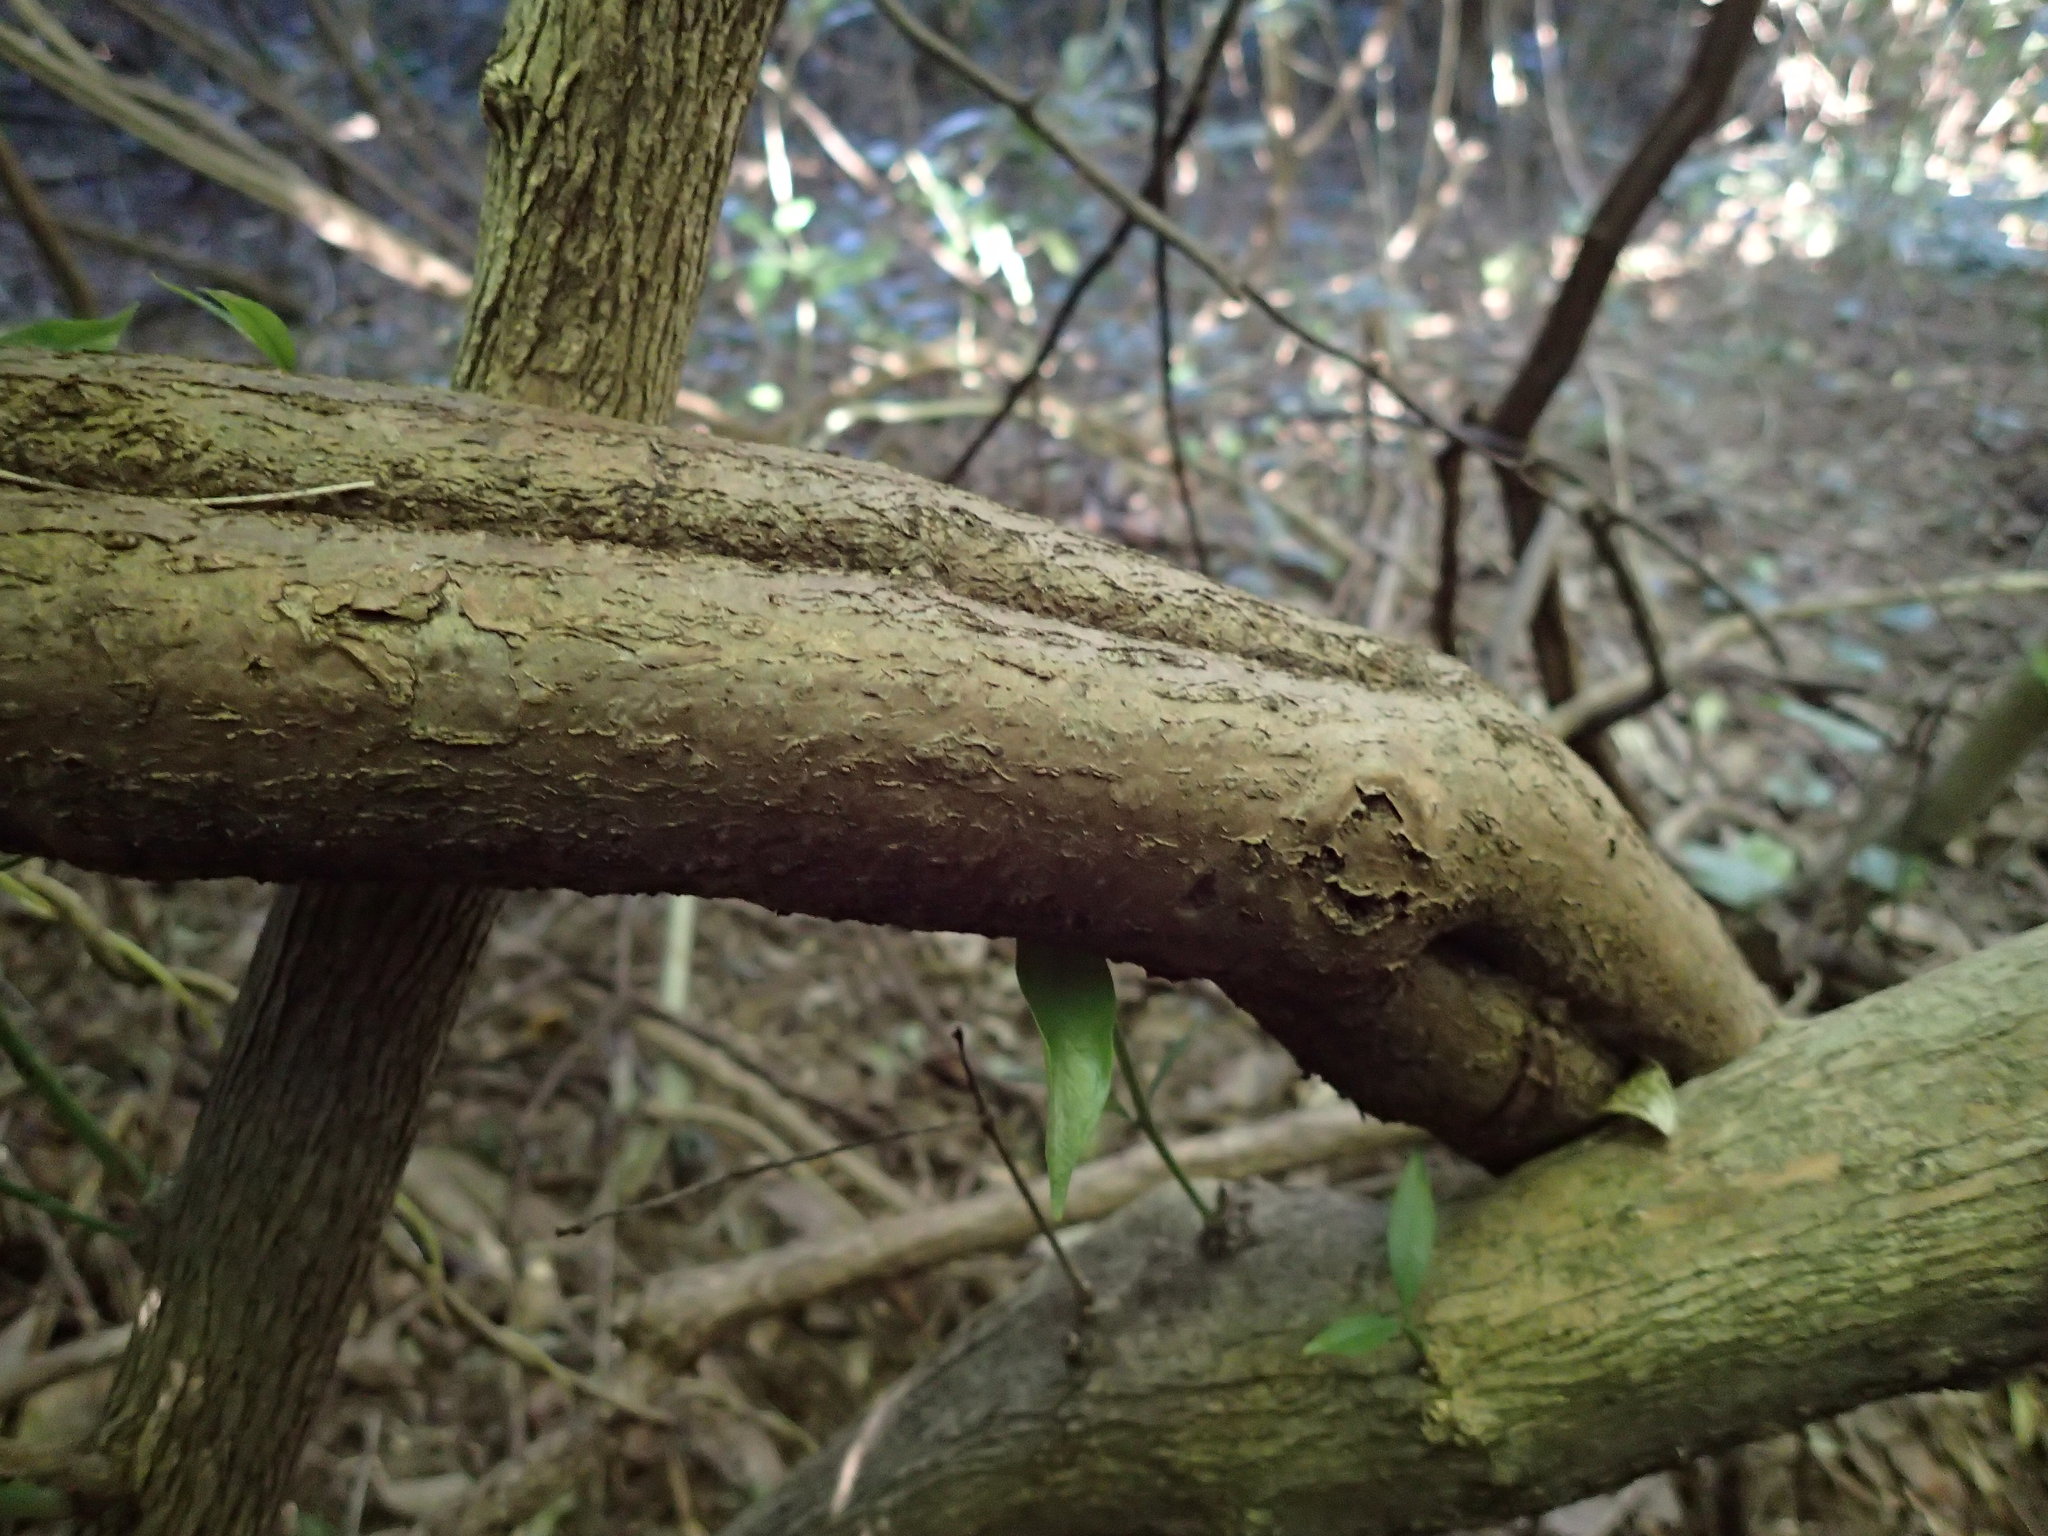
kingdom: Plantae
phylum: Tracheophyta
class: Magnoliopsida
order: Vitales
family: Vitaceae
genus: Cyphostemma
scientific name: Cyphostemma hypoleucum
